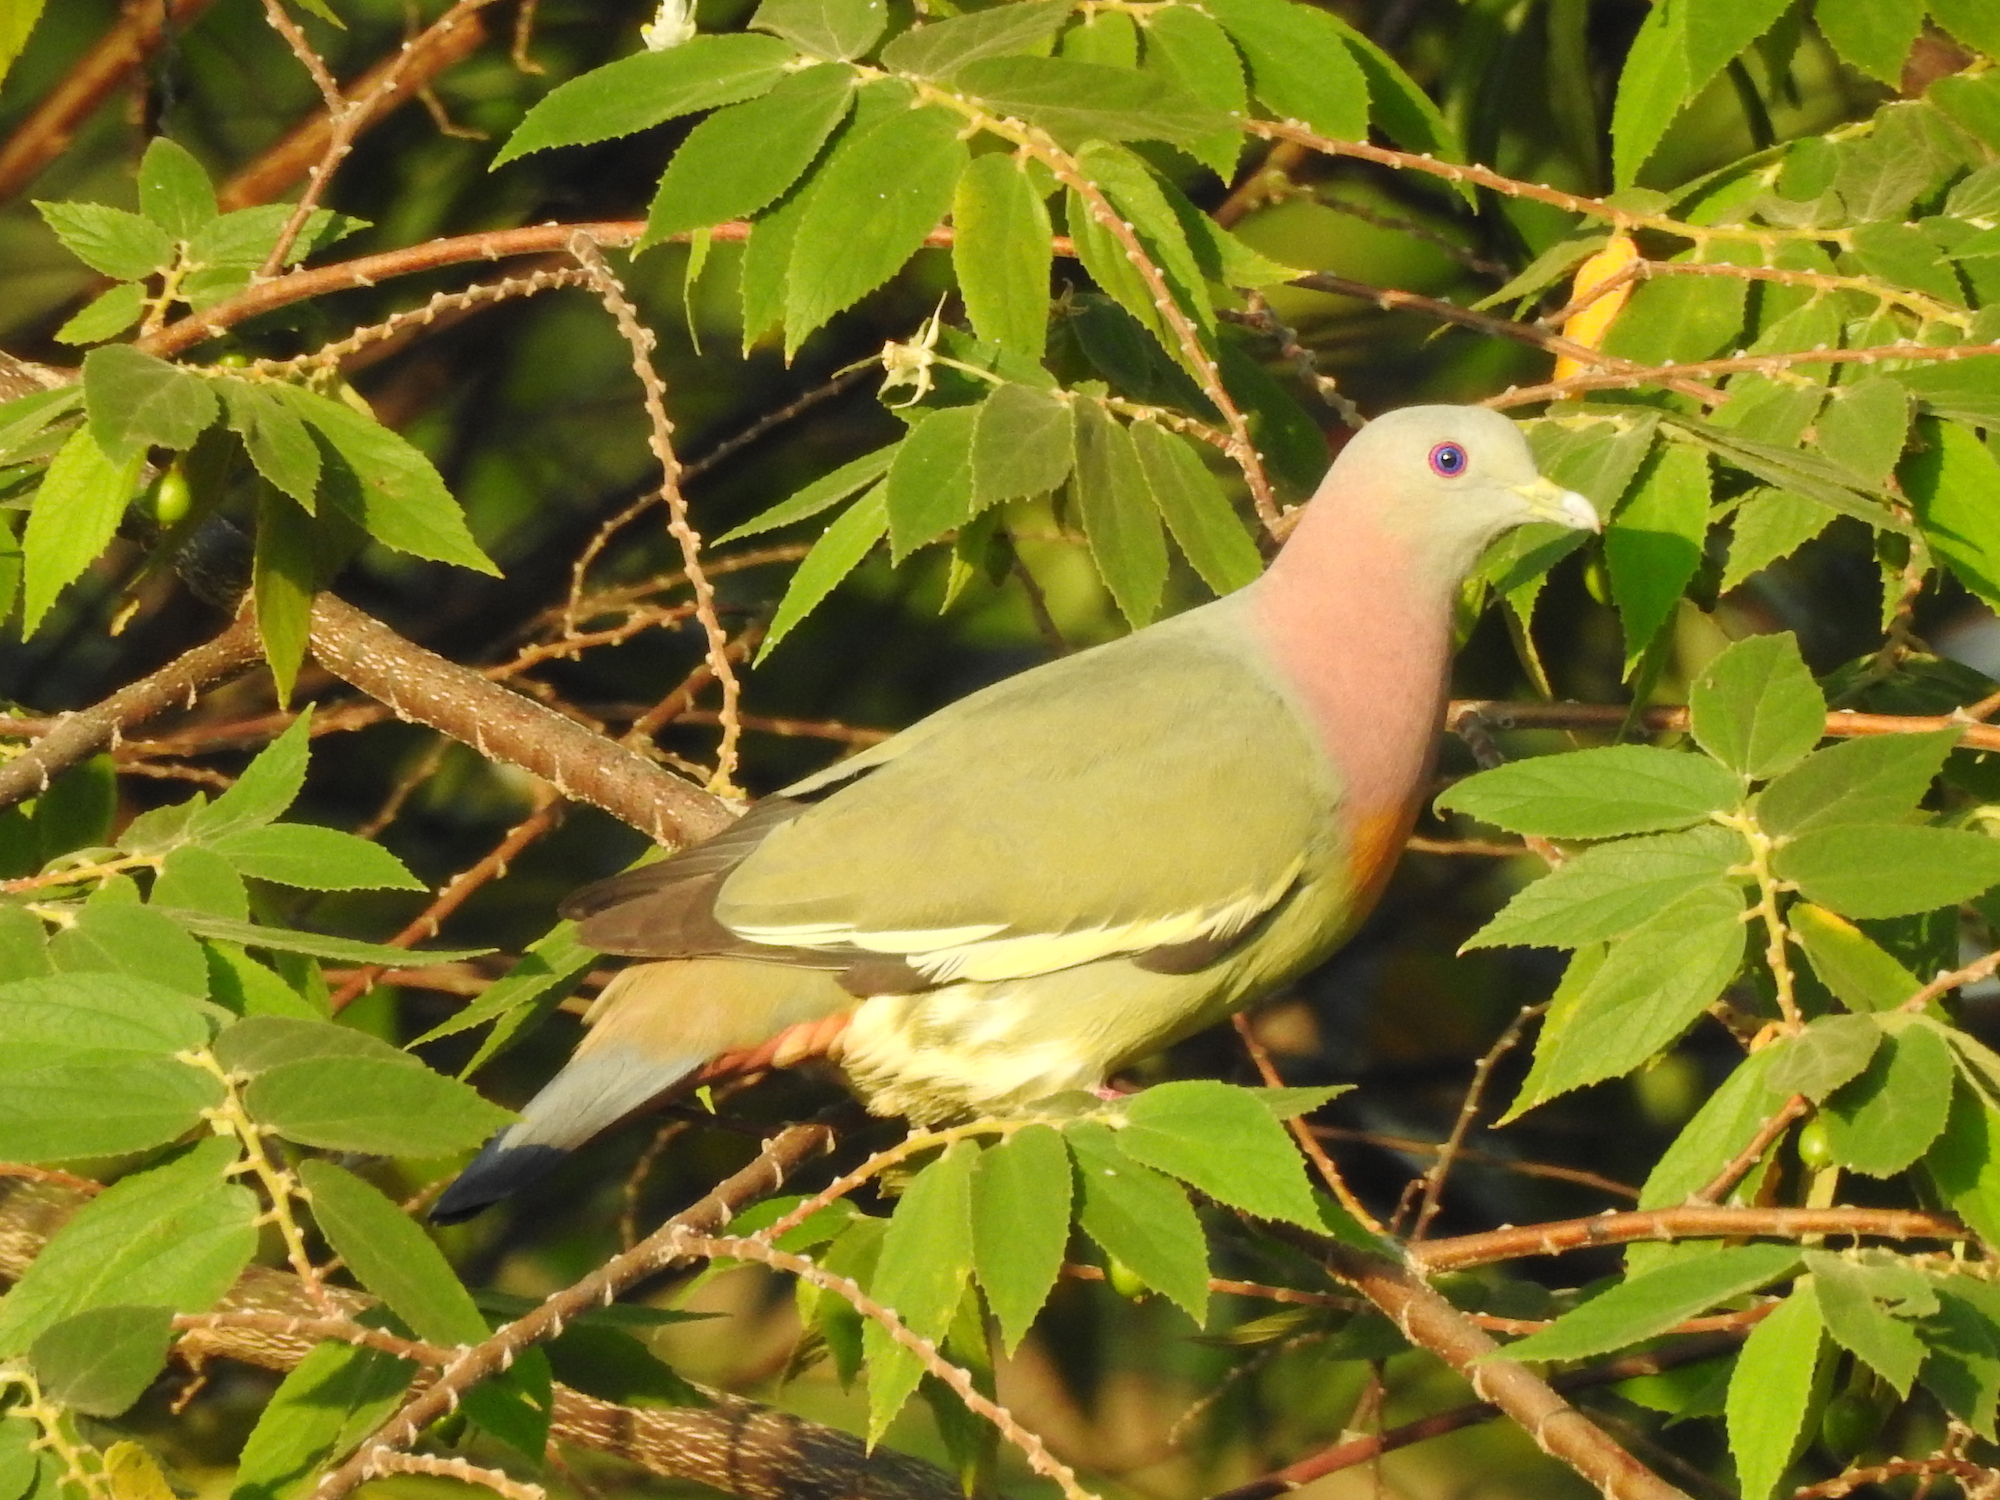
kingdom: Animalia
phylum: Chordata
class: Aves
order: Columbiformes
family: Columbidae
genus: Treron
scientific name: Treron vernans
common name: Pink-necked green pigeon
